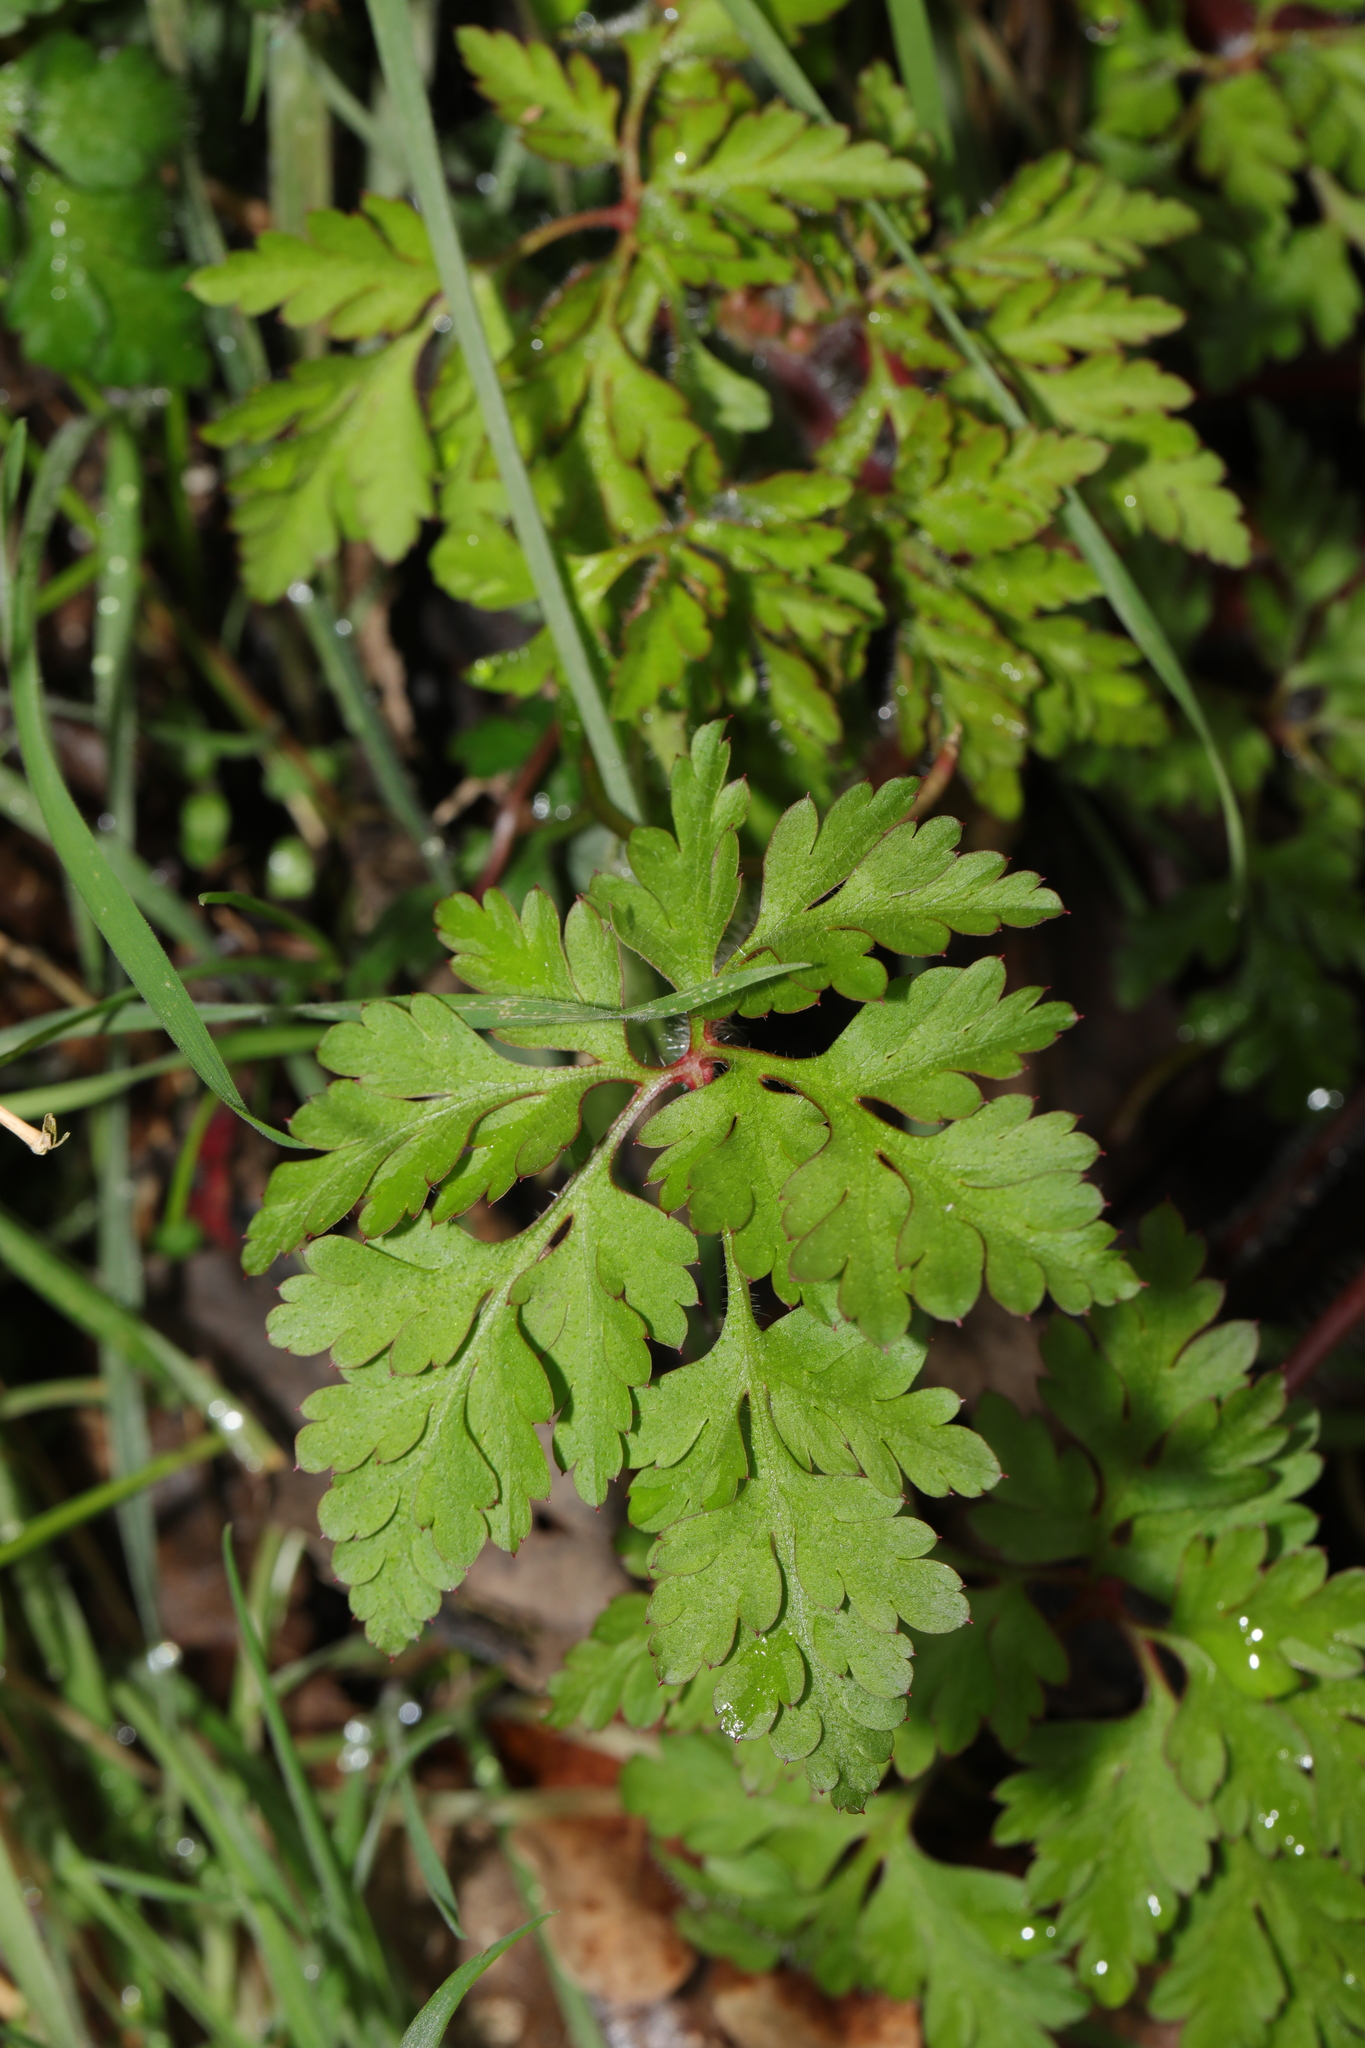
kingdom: Plantae
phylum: Tracheophyta
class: Magnoliopsida
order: Geraniales
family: Geraniaceae
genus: Geranium
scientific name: Geranium robertianum
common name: Herb-robert
